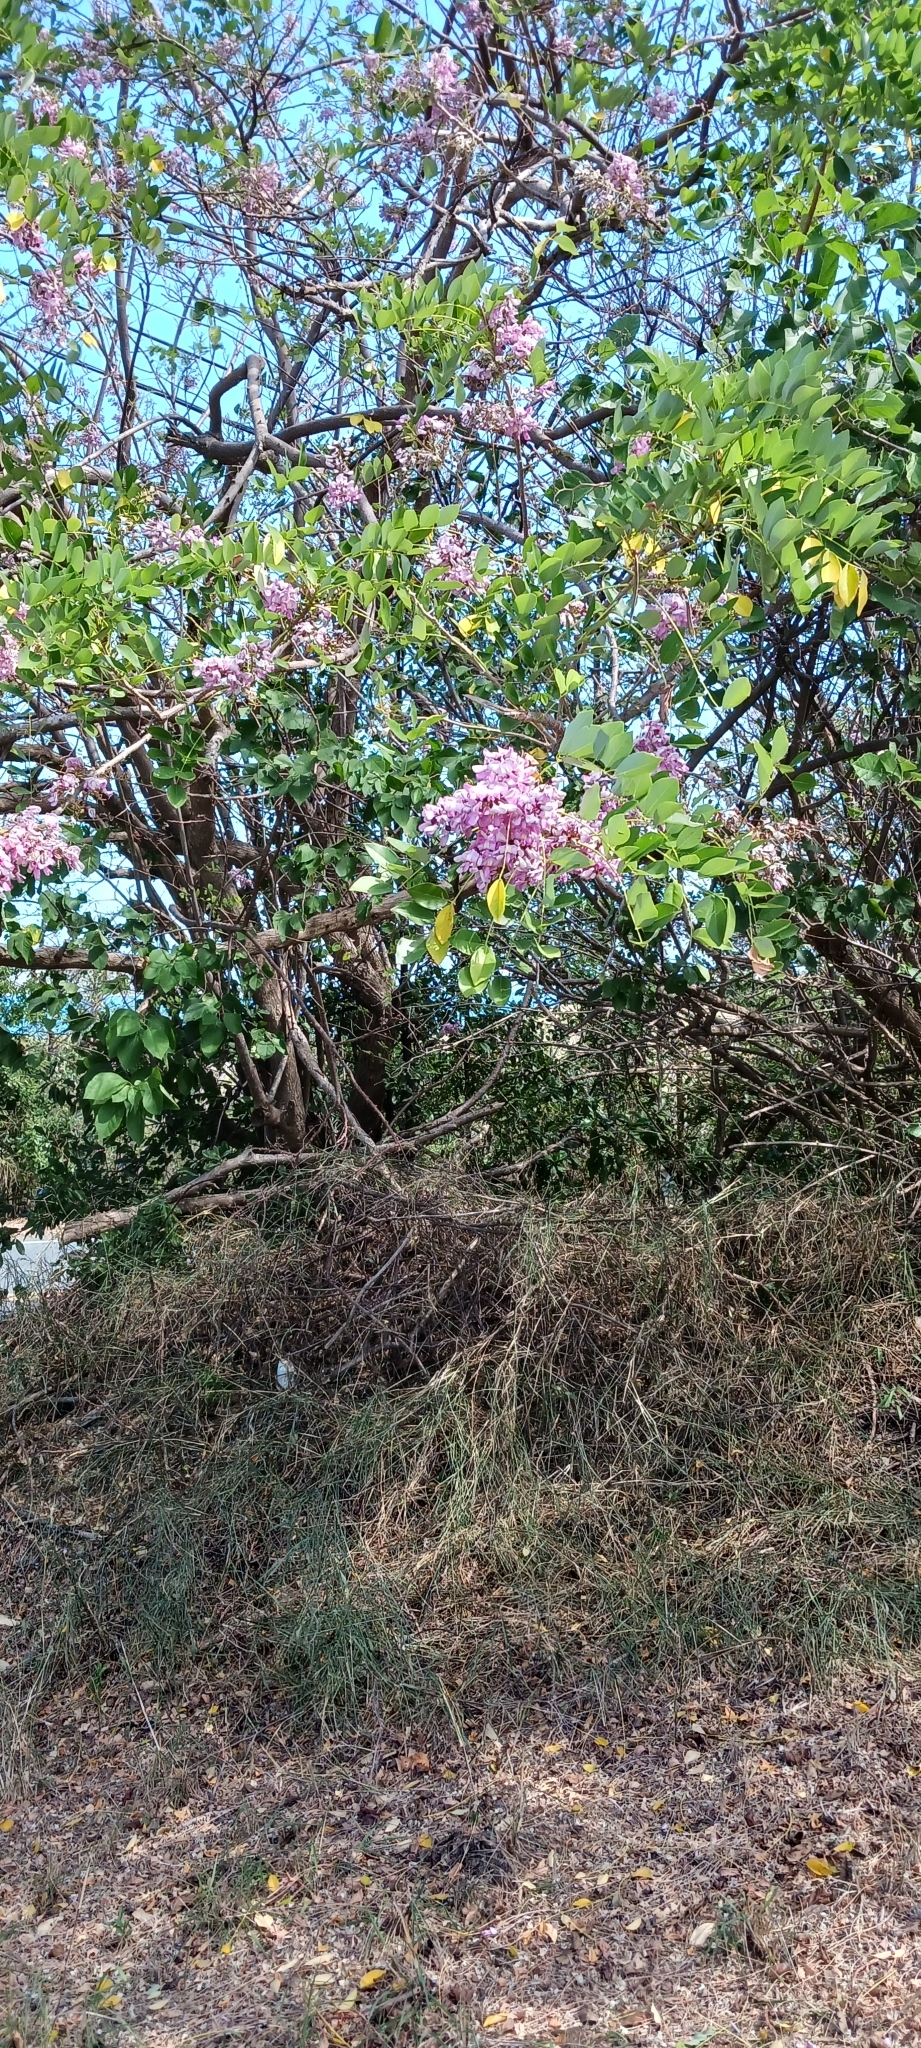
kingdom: Plantae
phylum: Tracheophyta
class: Magnoliopsida
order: Fabales
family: Fabaceae
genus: Gliricidia
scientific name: Gliricidia sepium
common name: Quickstick
